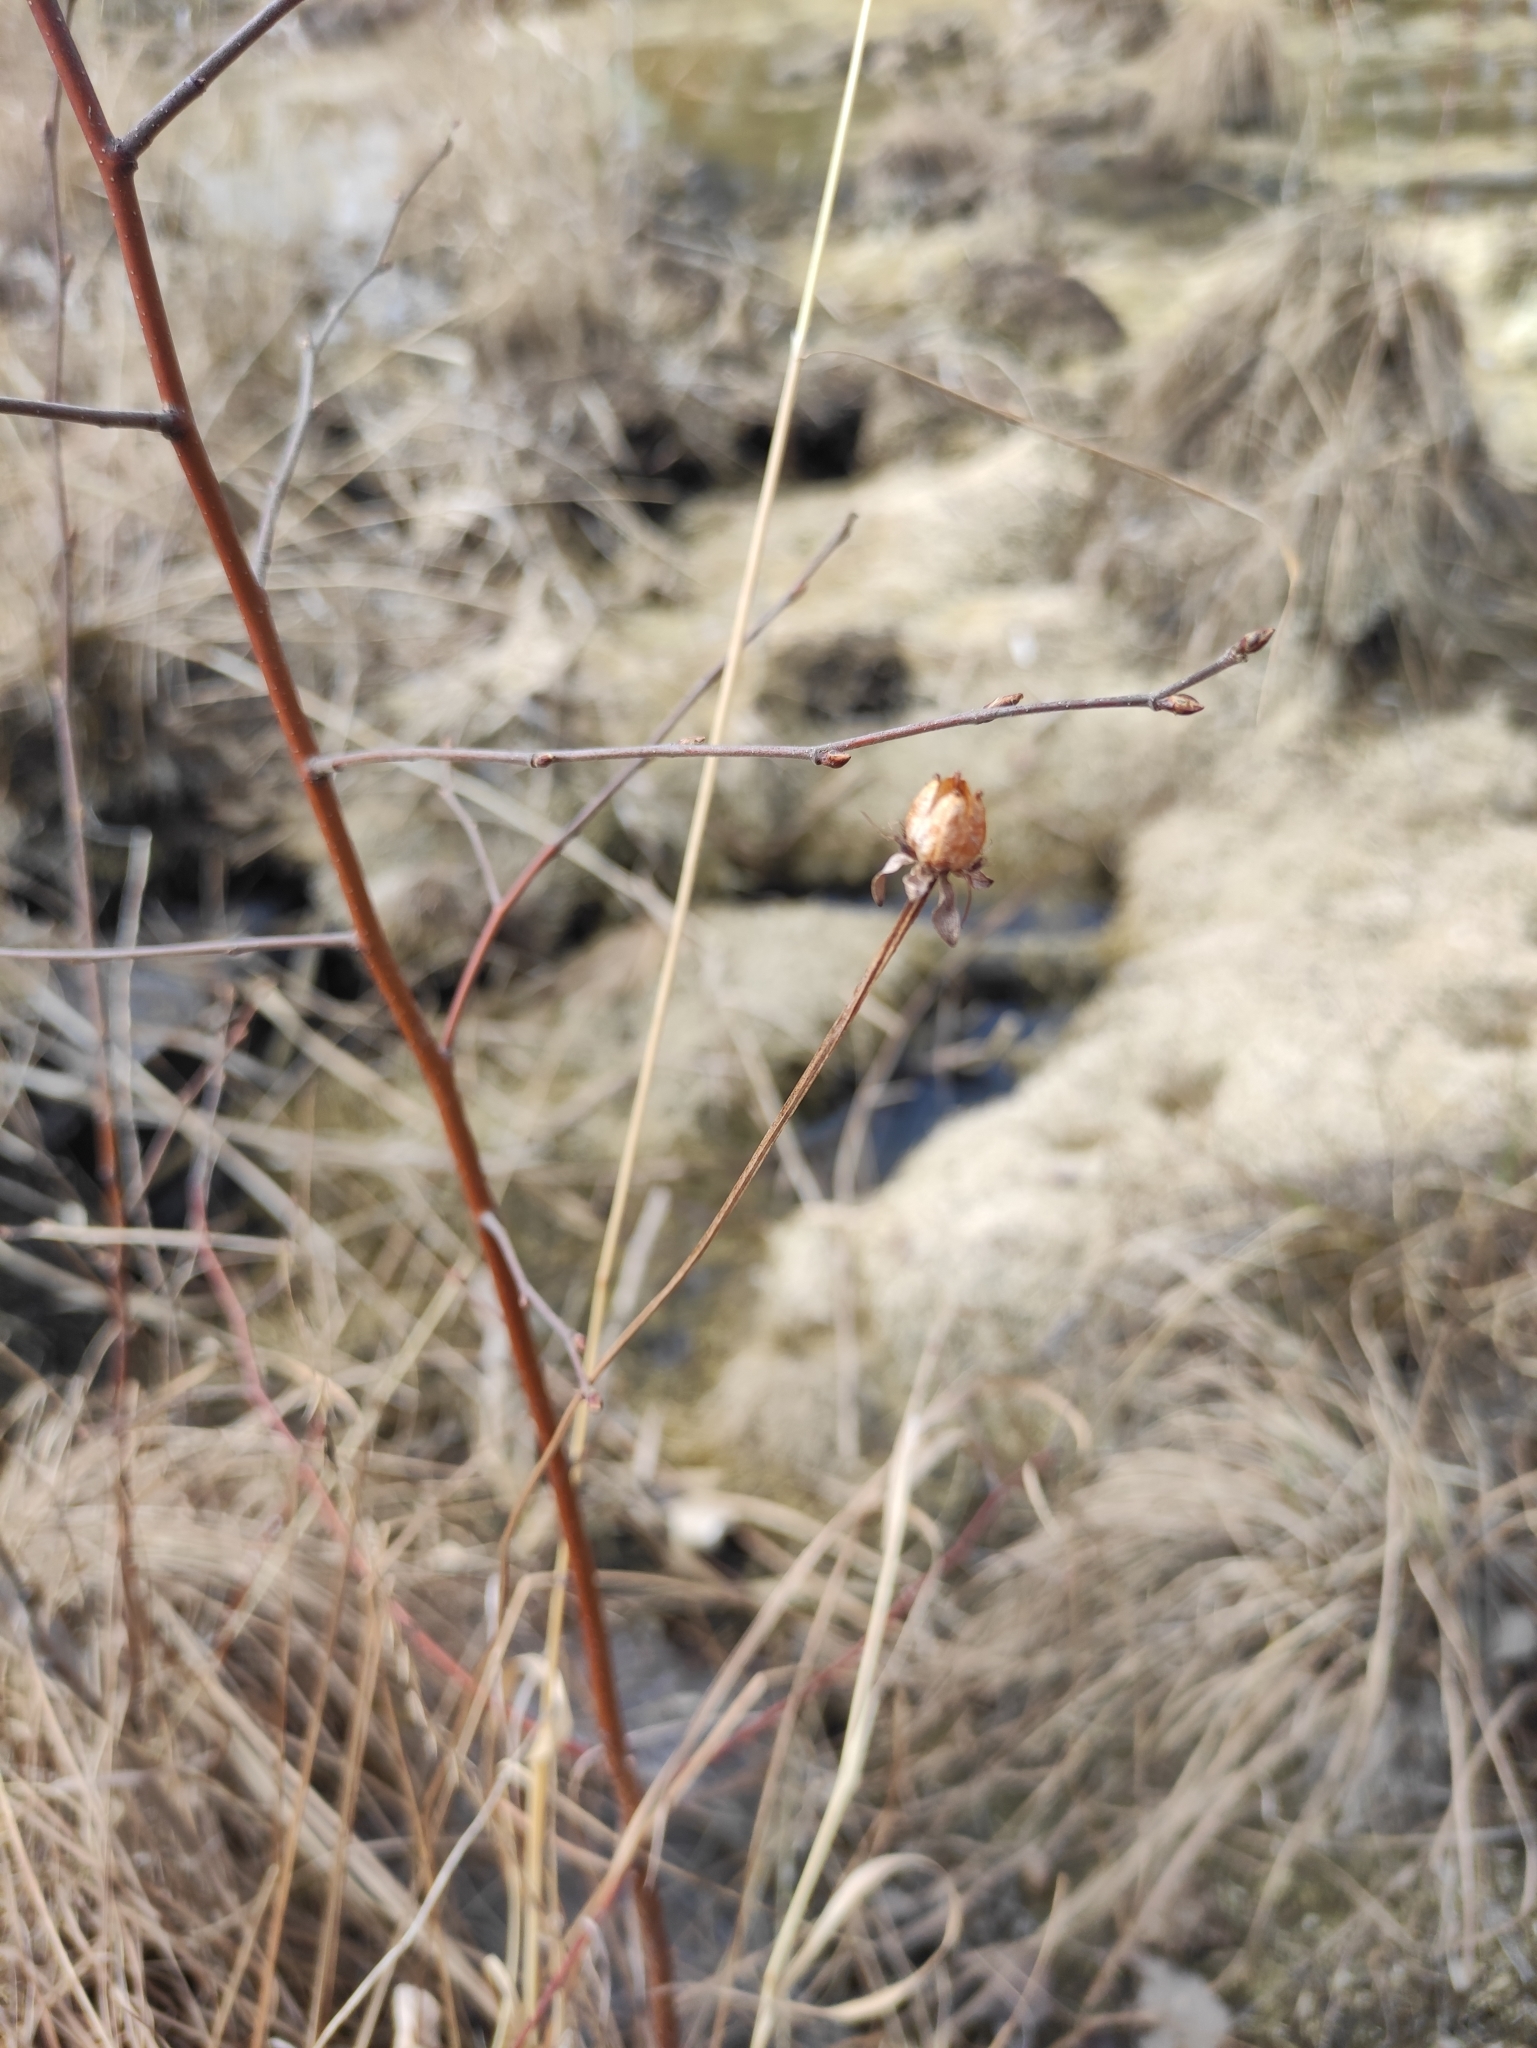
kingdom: Plantae
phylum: Tracheophyta
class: Magnoliopsida
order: Celastrales
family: Parnassiaceae
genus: Parnassia
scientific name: Parnassia palustris
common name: Grass-of-parnassus
